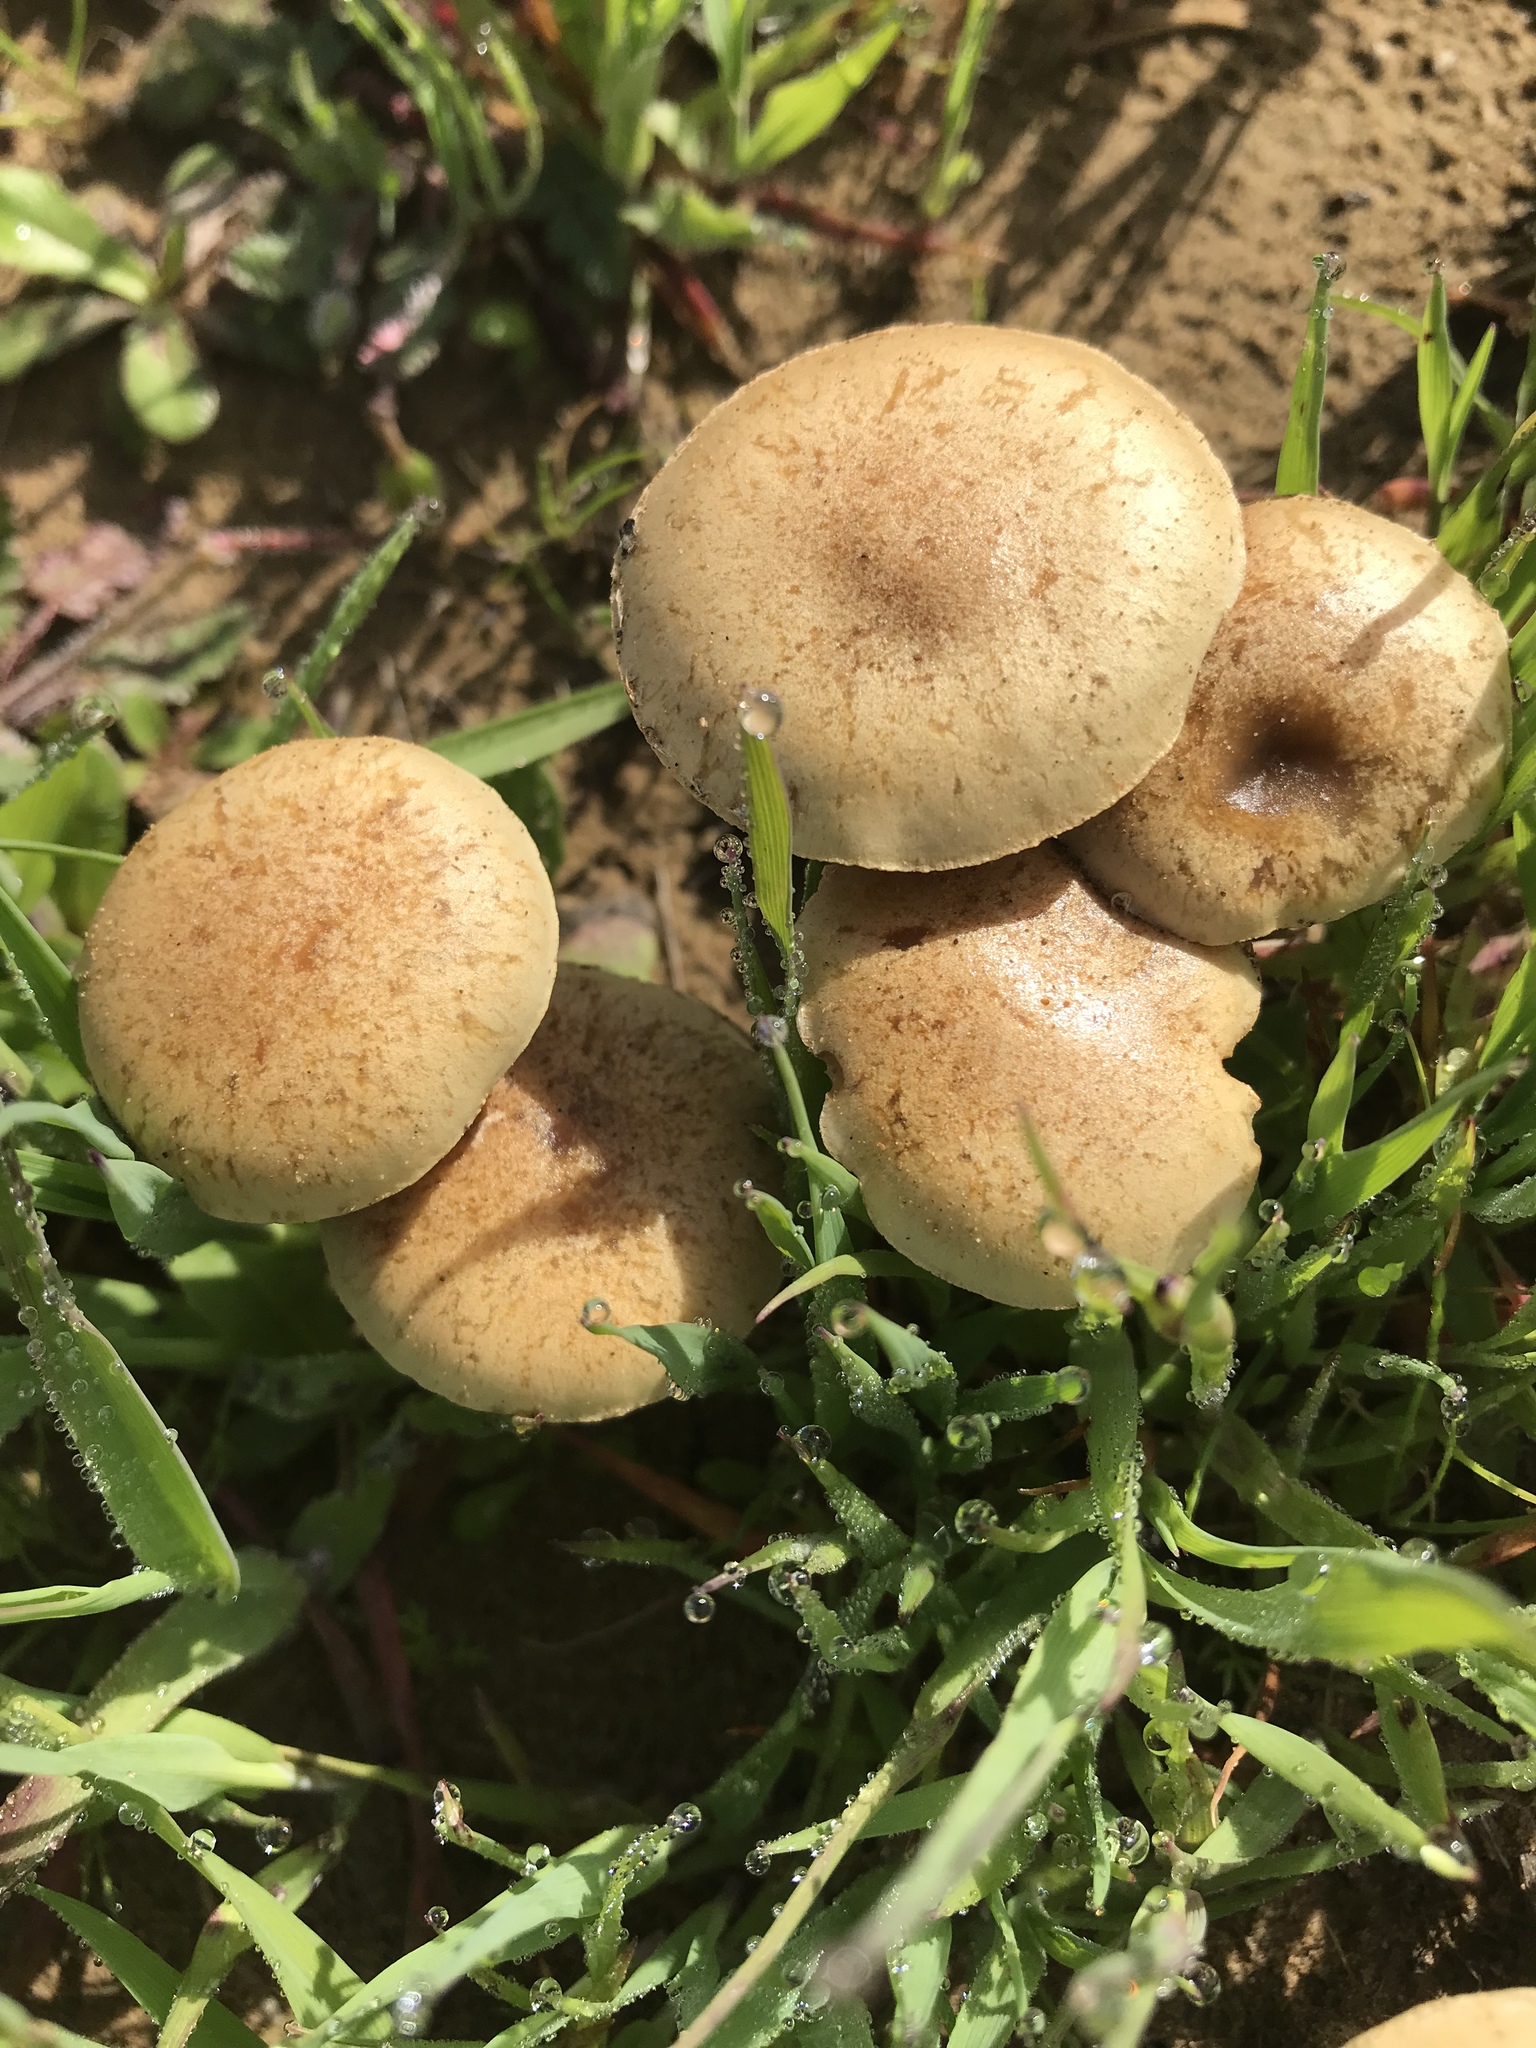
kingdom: Fungi
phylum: Basidiomycota
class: Agaricomycetes
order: Agaricales
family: Strophariaceae
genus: Agrocybe
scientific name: Agrocybe pediades
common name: Common fieldcap
